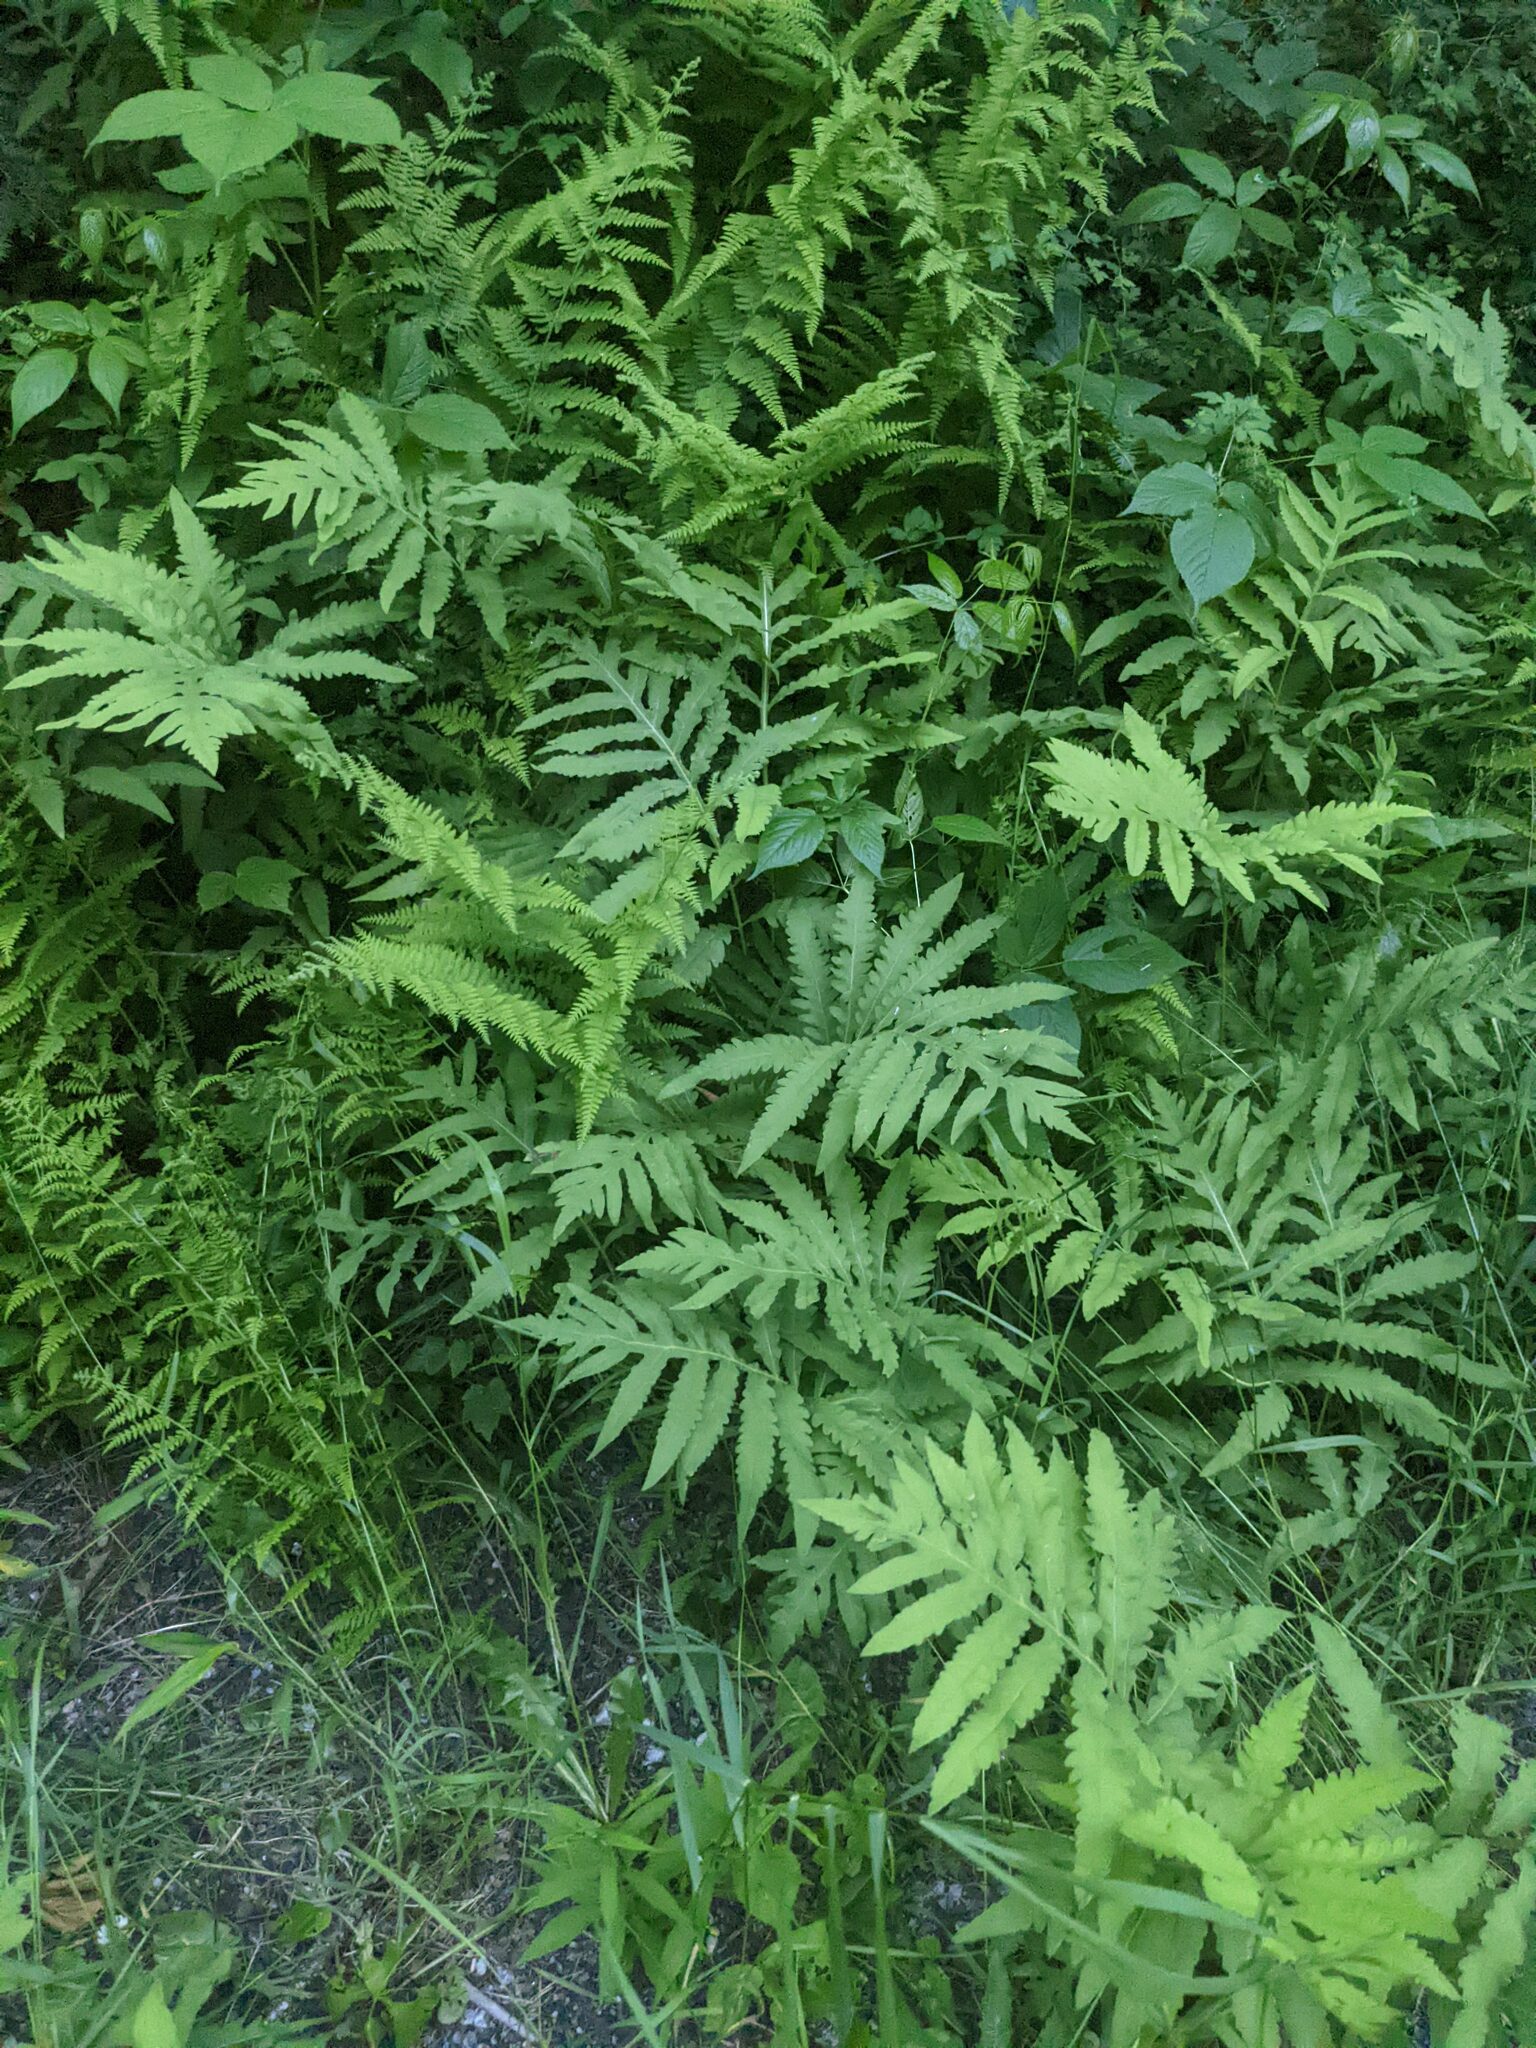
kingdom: Plantae
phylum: Tracheophyta
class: Polypodiopsida
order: Polypodiales
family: Onocleaceae
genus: Onoclea
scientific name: Onoclea sensibilis
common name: Sensitive fern
